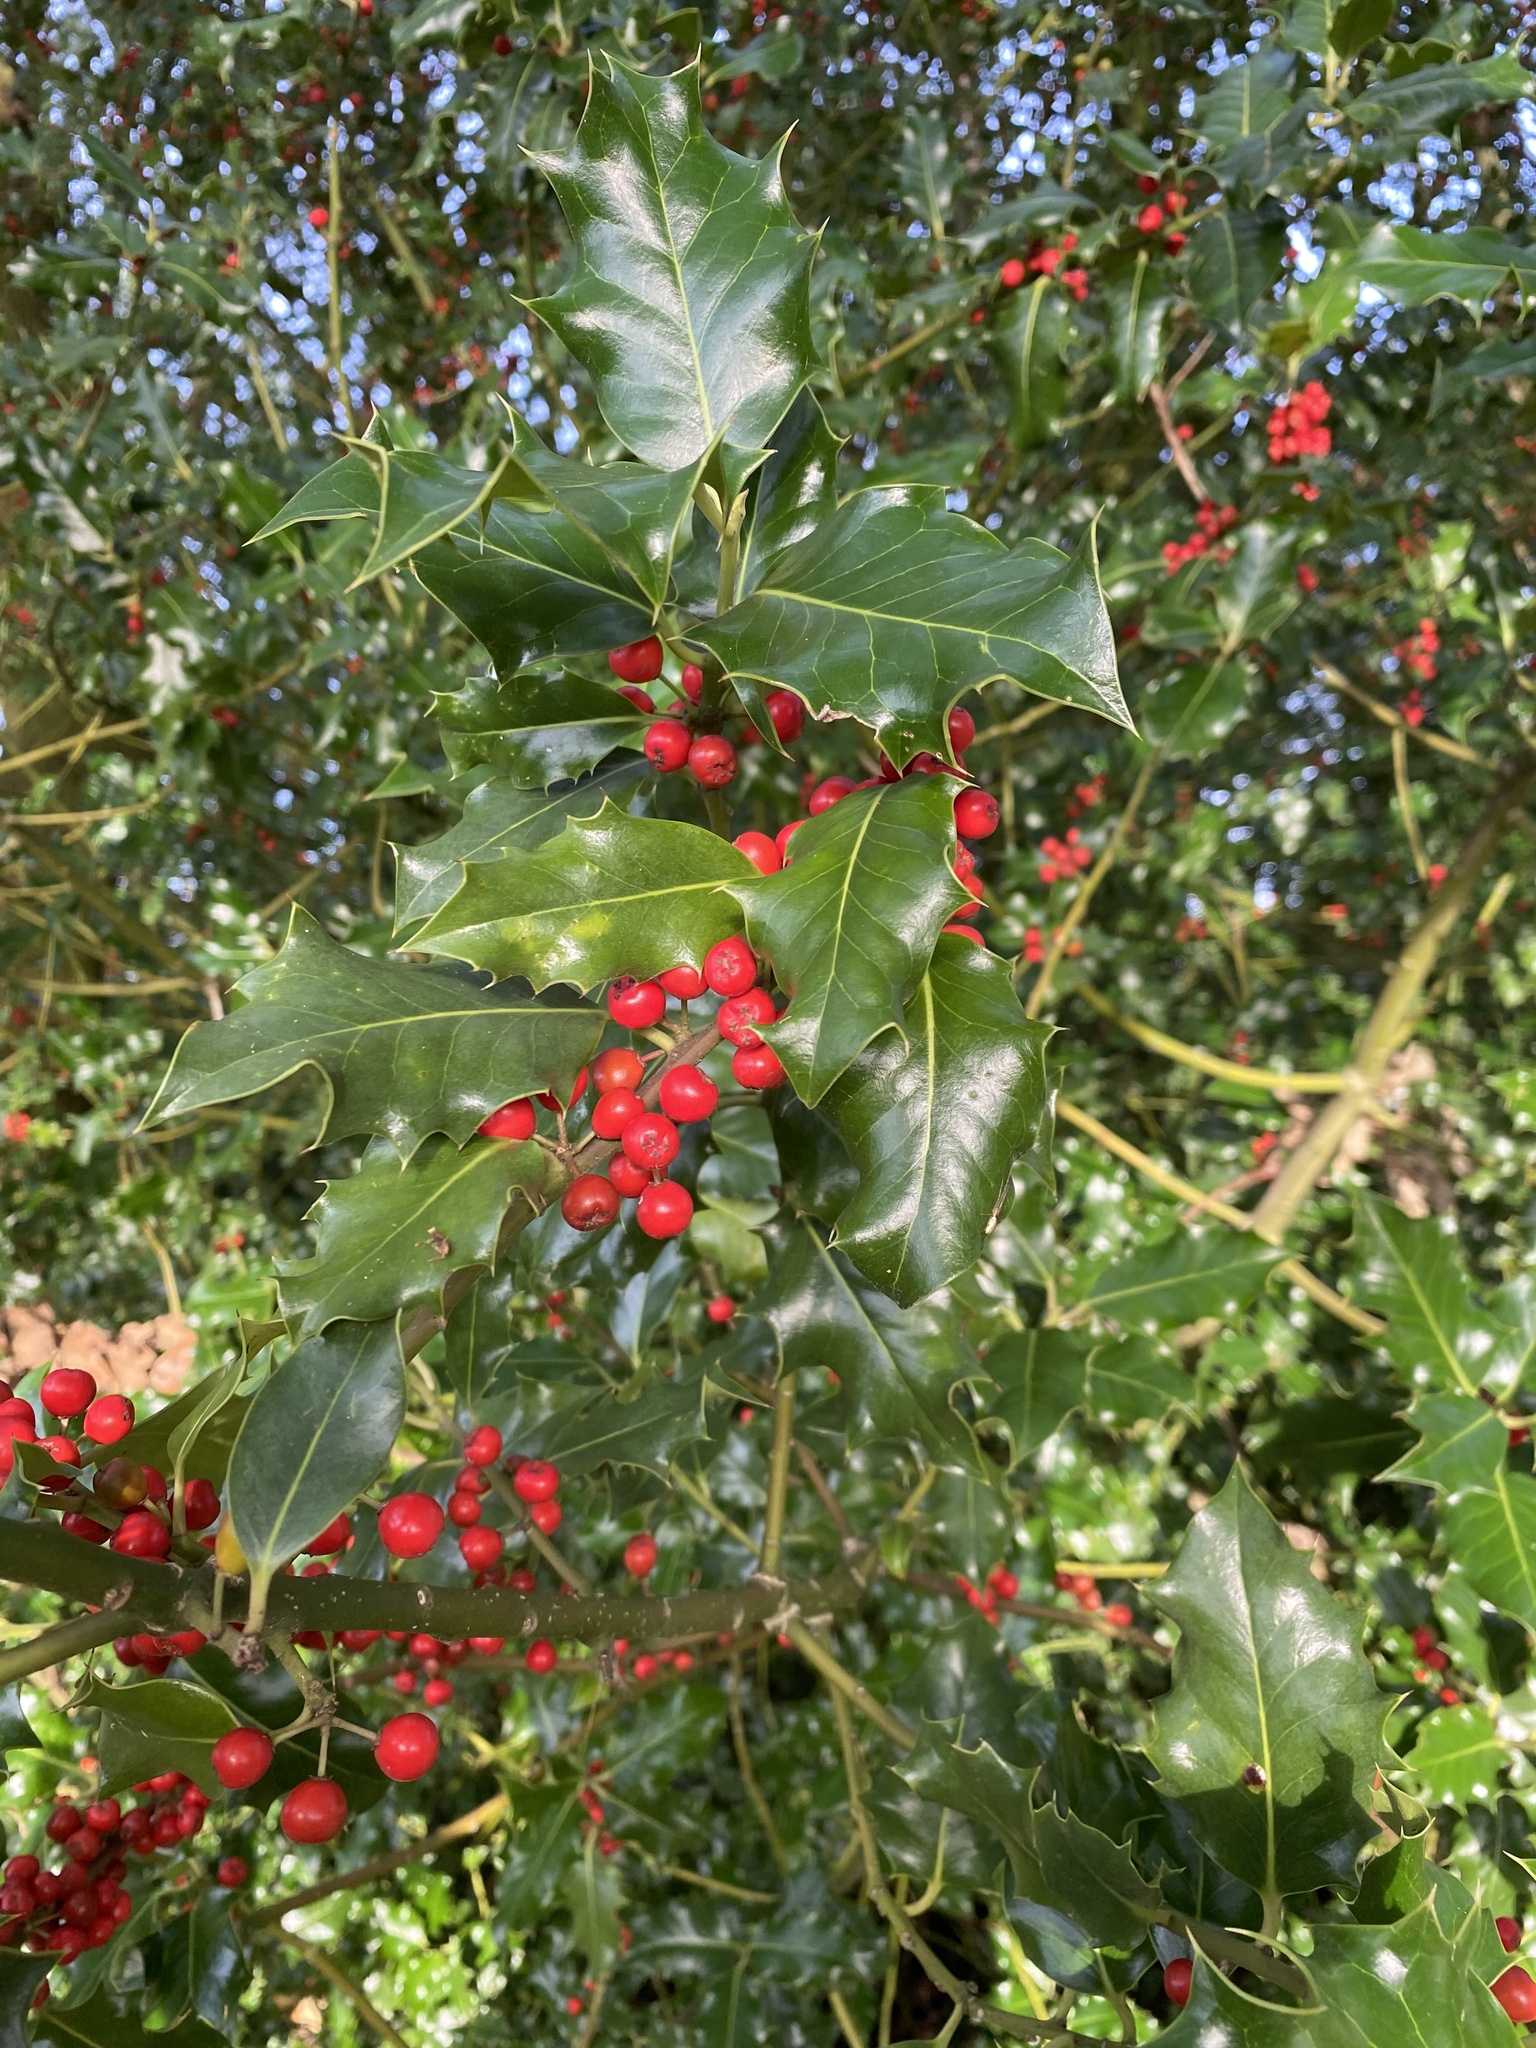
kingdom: Plantae
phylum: Tracheophyta
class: Magnoliopsida
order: Aquifoliales
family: Aquifoliaceae
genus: Ilex
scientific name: Ilex aquifolium
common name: English holly
